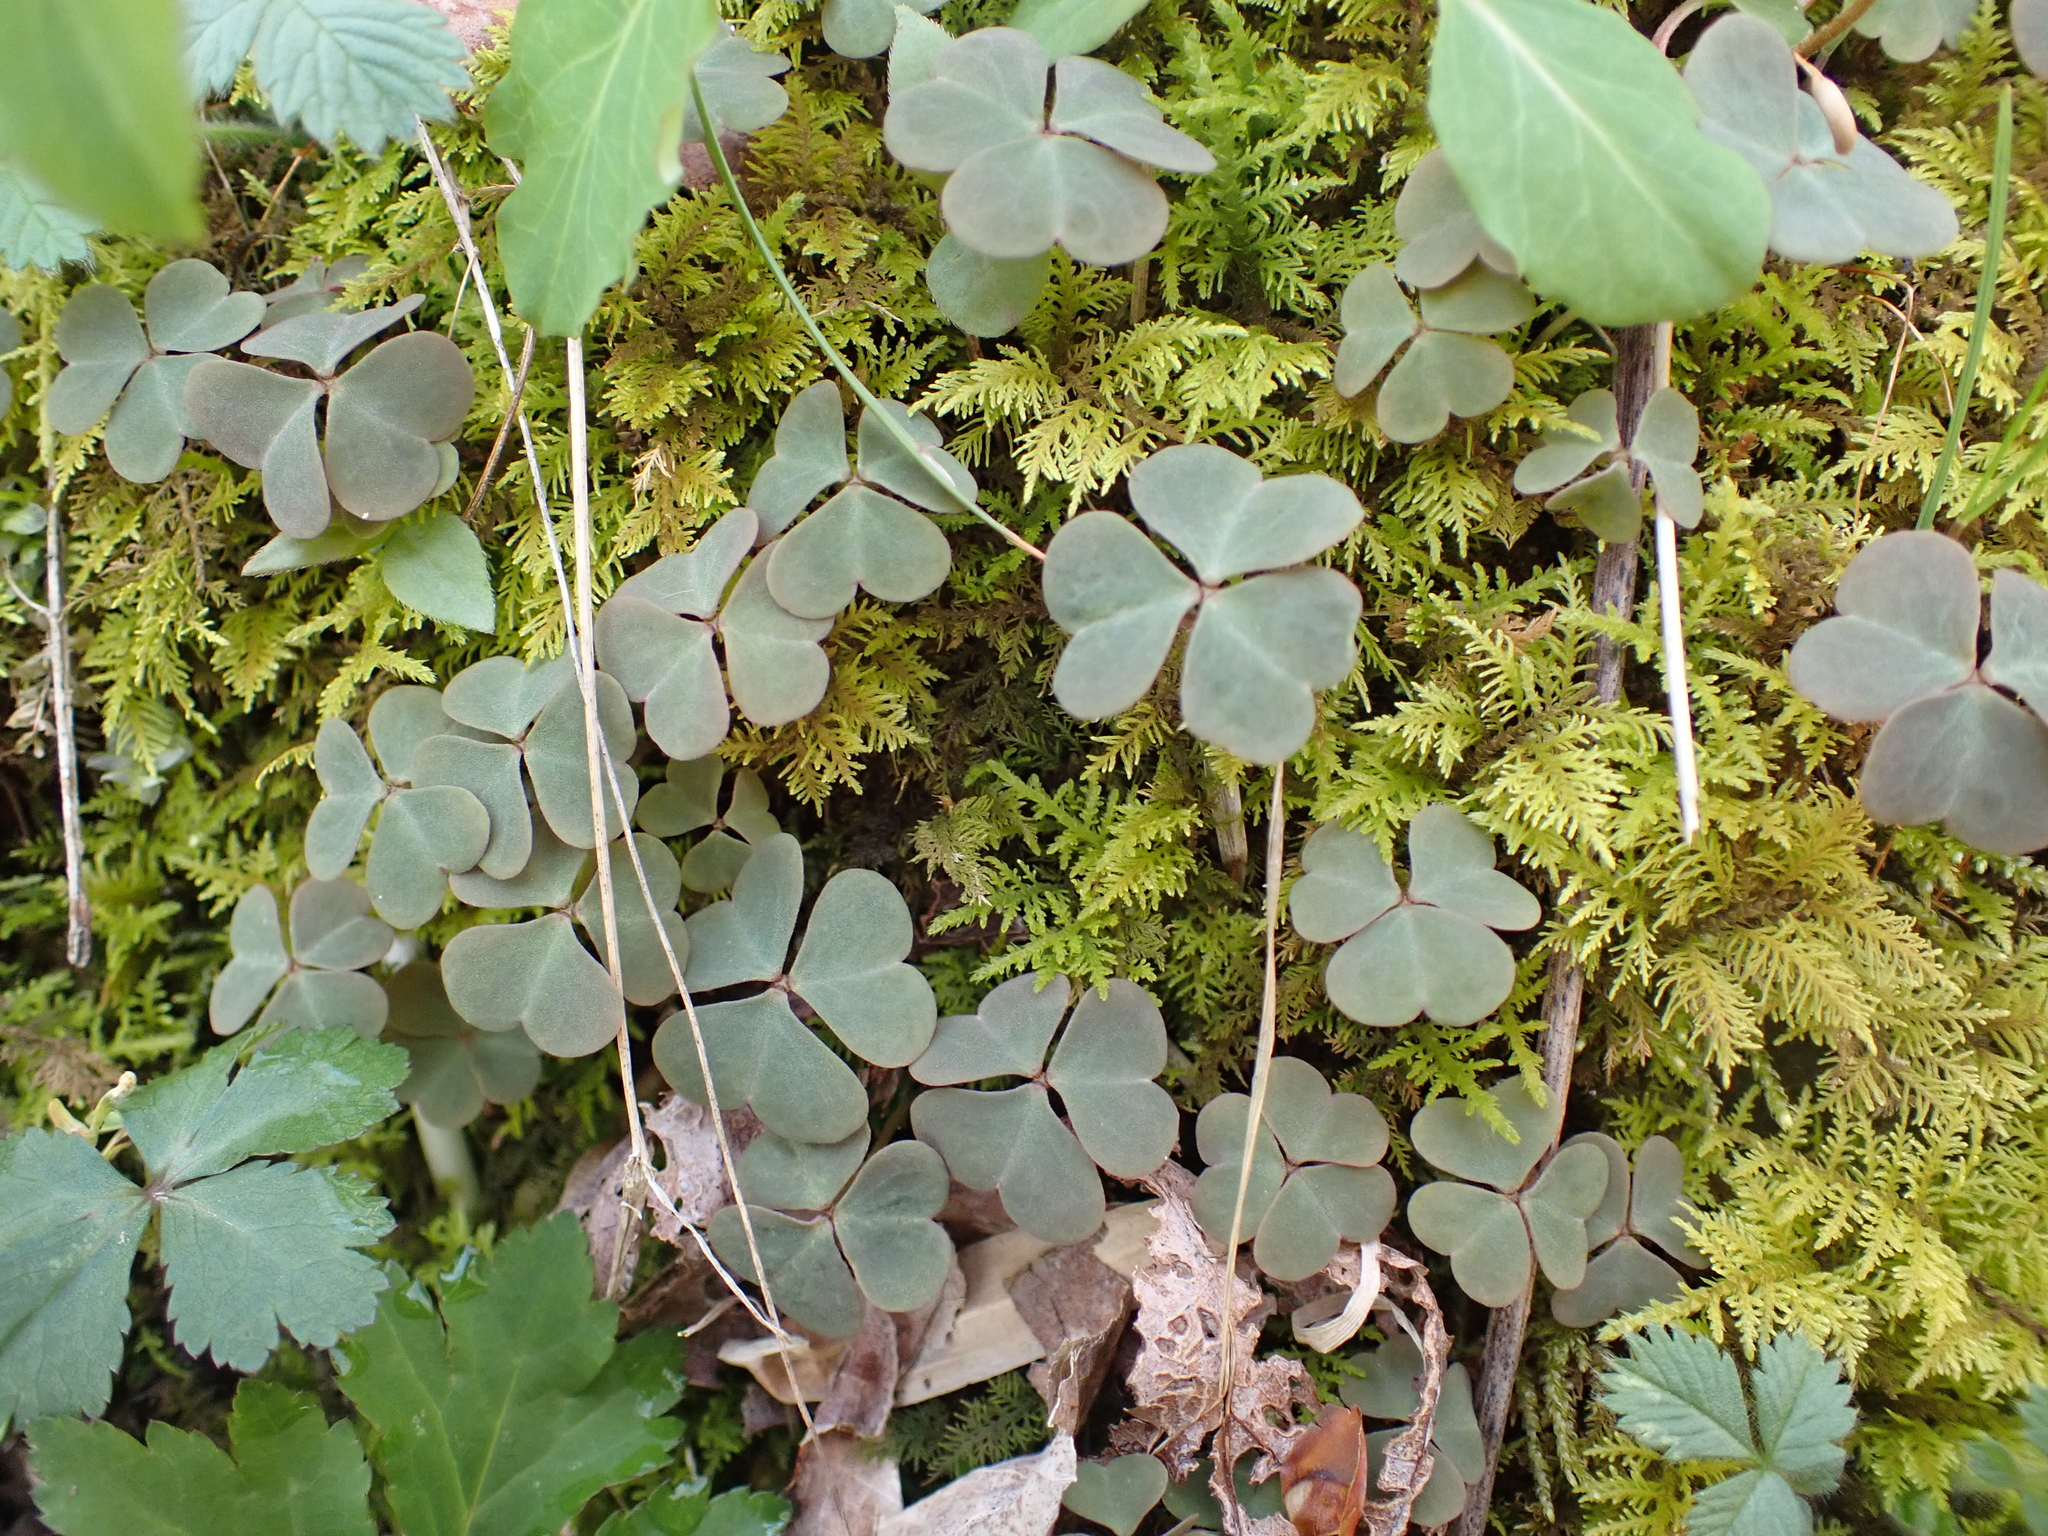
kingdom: Plantae
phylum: Tracheophyta
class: Magnoliopsida
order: Oxalidales
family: Oxalidaceae
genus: Oxalis
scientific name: Oxalis violacea
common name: Violet wood-sorrel
